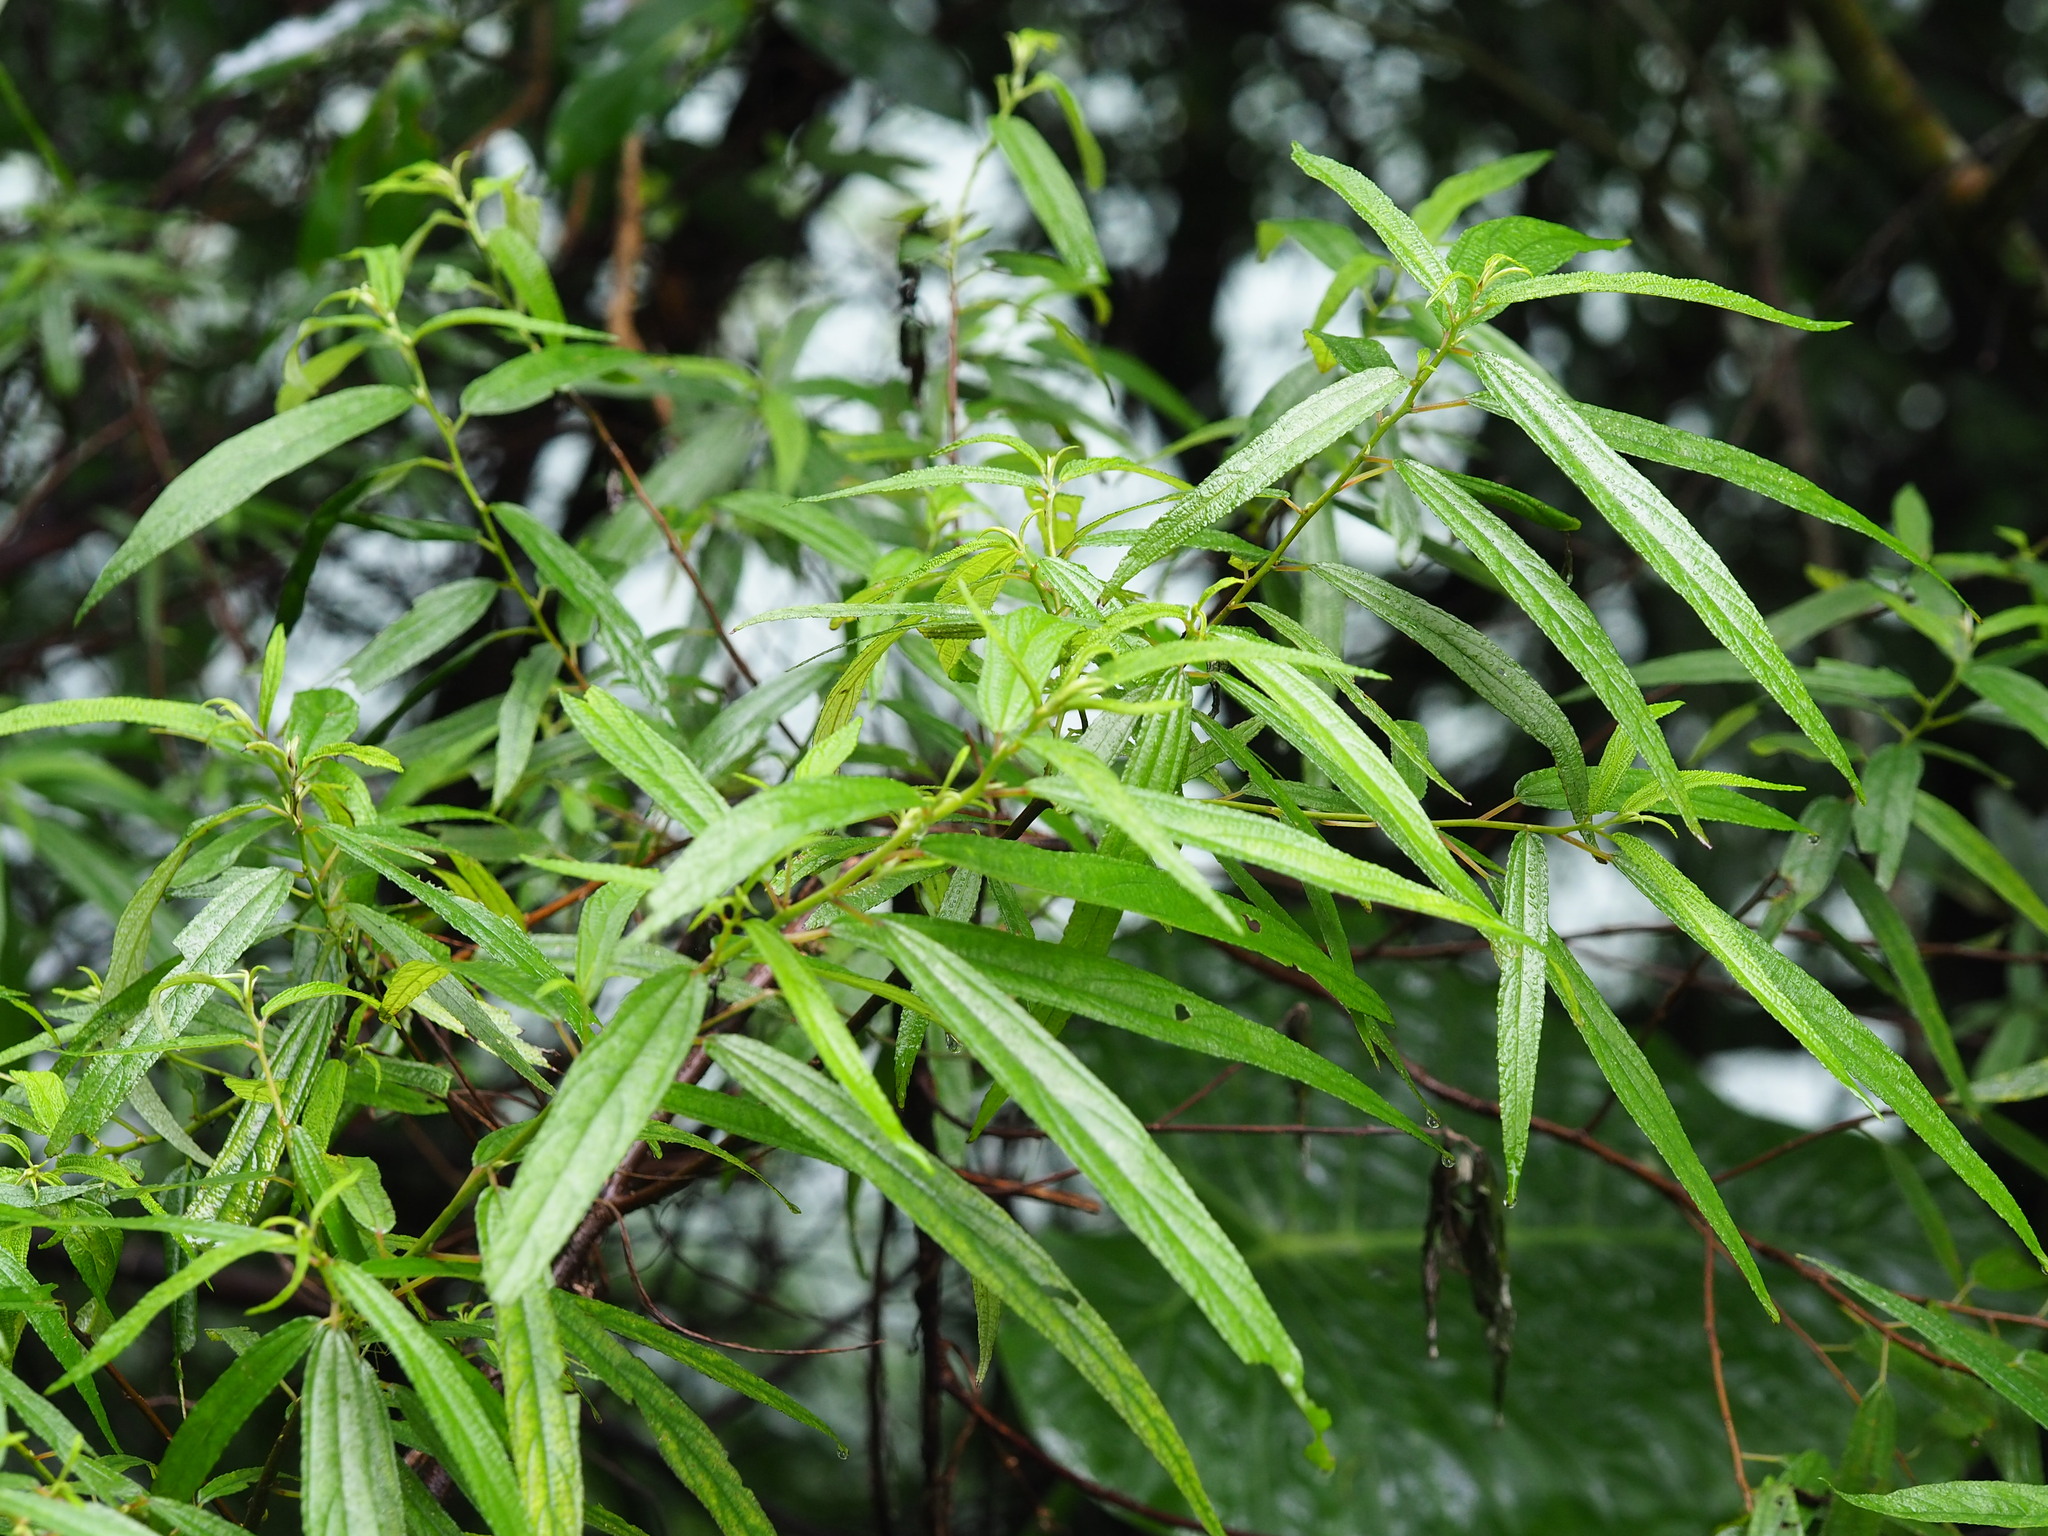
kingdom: Plantae
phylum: Tracheophyta
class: Magnoliopsida
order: Rosales
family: Urticaceae
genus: Debregeasia
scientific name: Debregeasia orientalis
